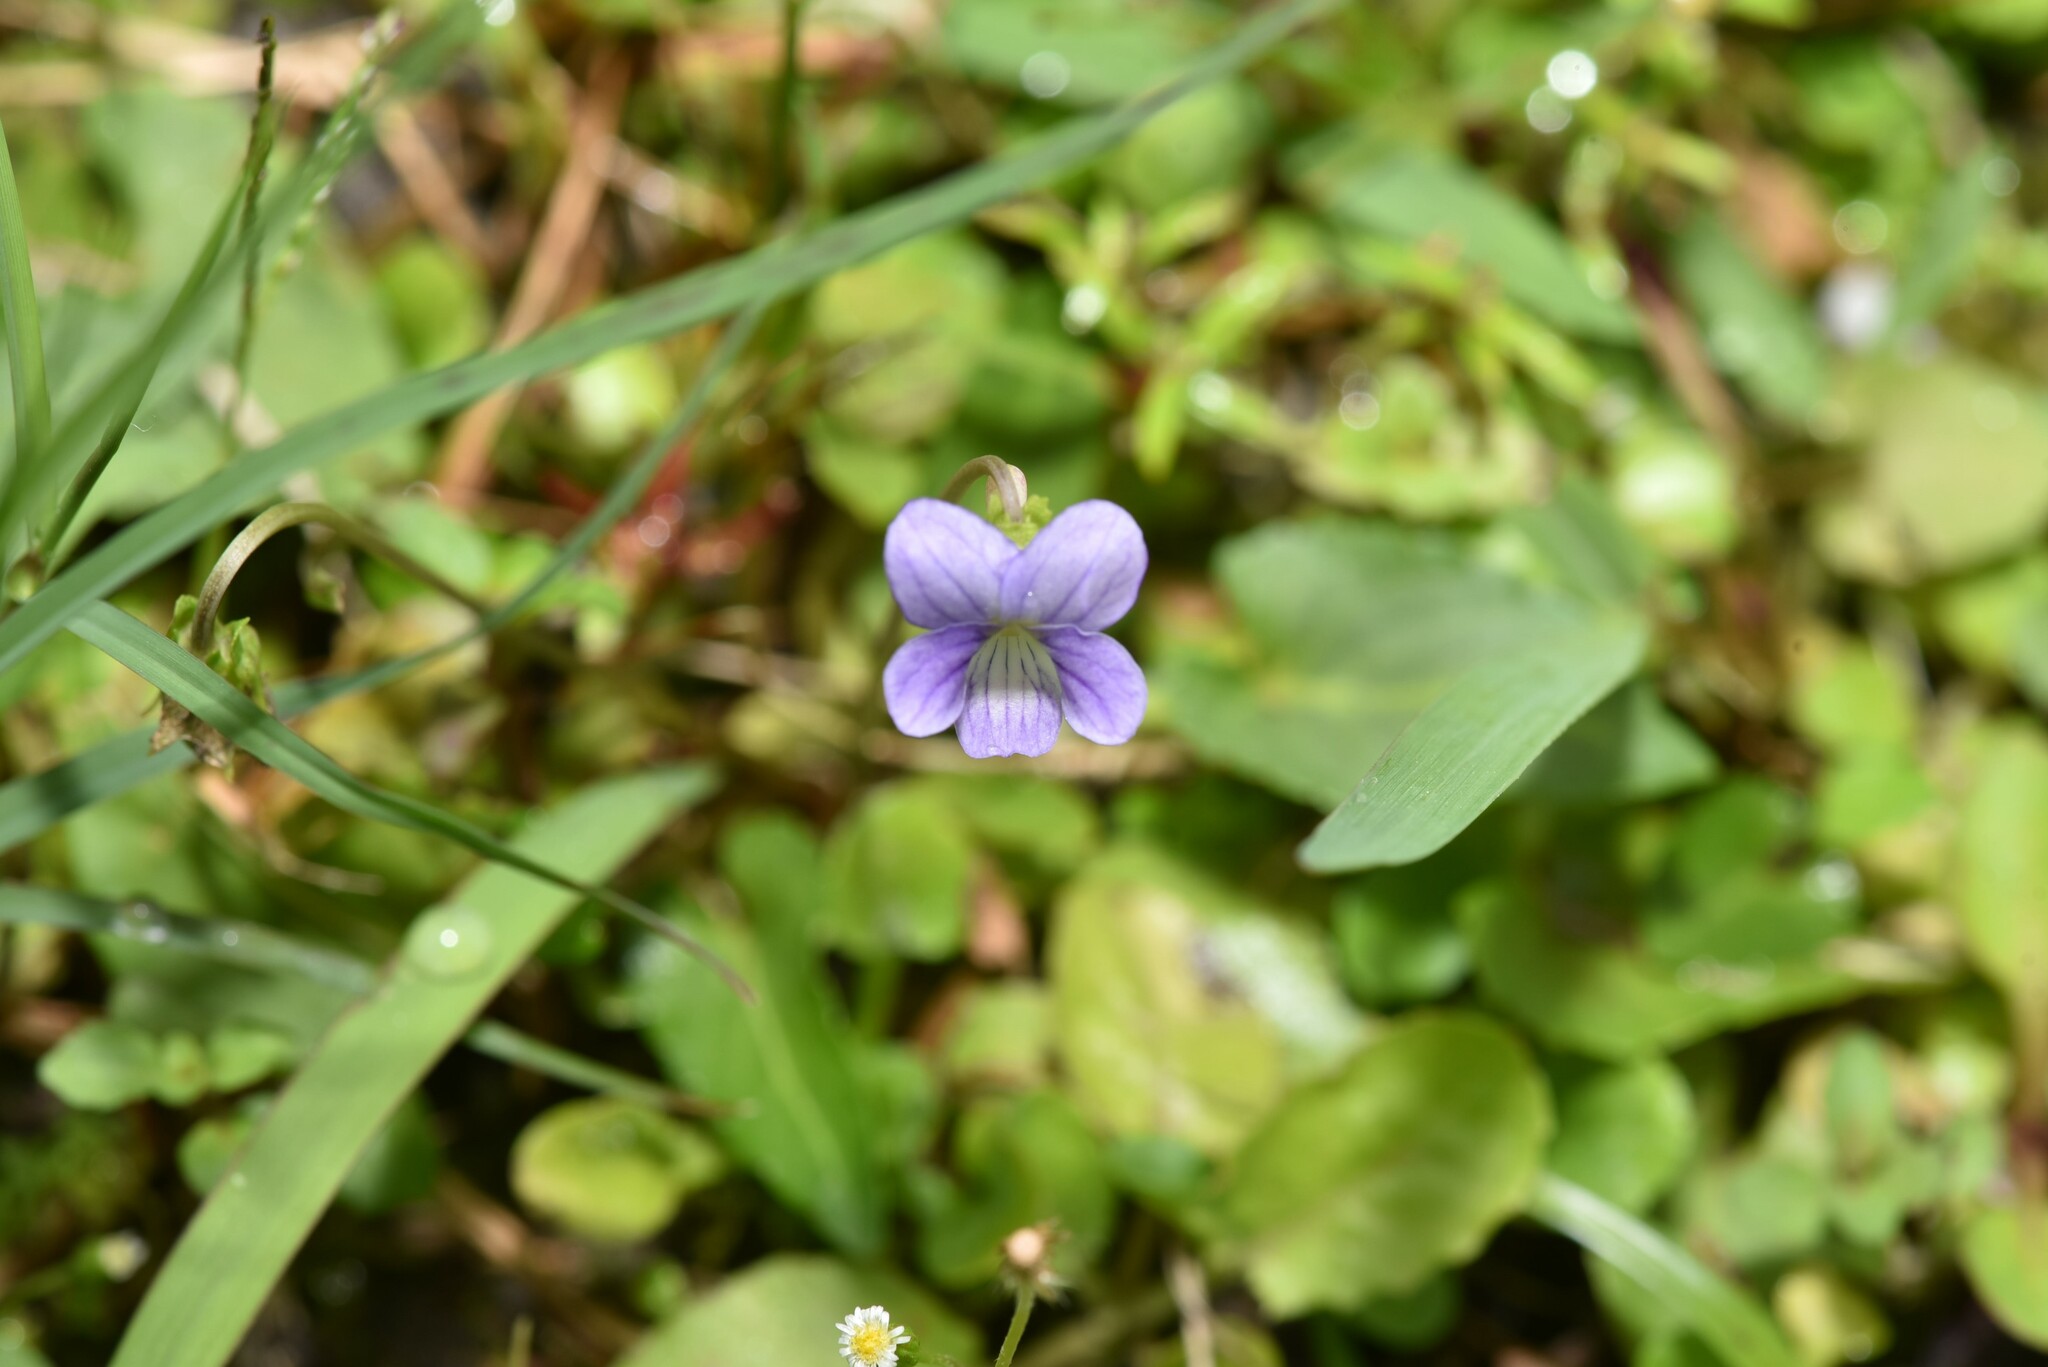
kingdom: Plantae
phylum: Tracheophyta
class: Magnoliopsida
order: Malpighiales
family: Violaceae
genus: Viola
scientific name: Viola inconspicua
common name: Long sepal violet
